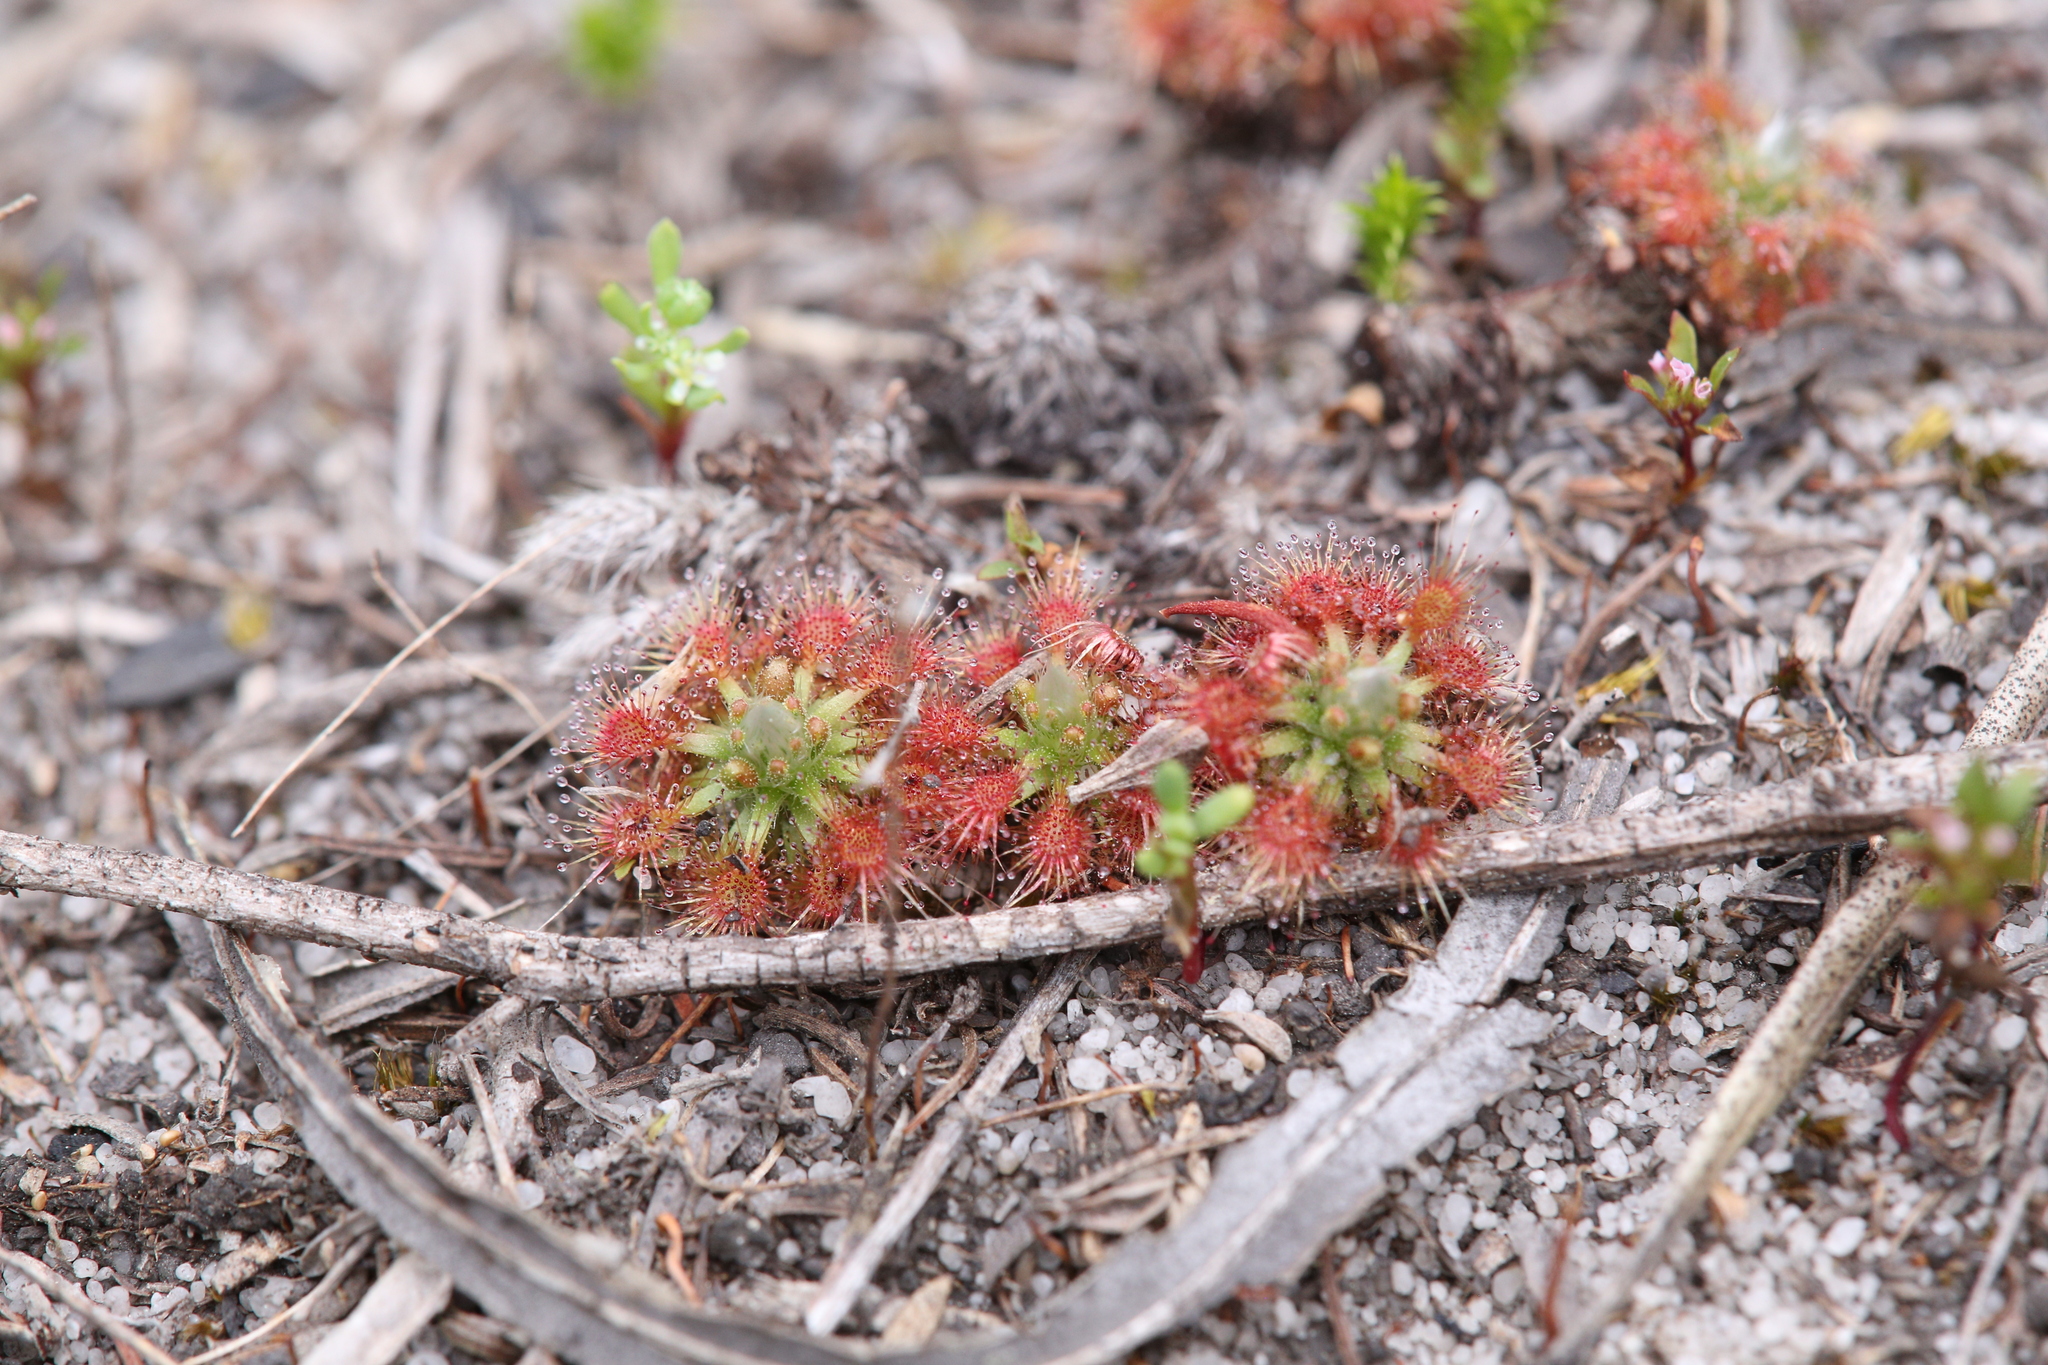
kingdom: Plantae
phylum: Tracheophyta
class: Magnoliopsida
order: Caryophyllales
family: Droseraceae
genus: Drosera
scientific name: Drosera patens
